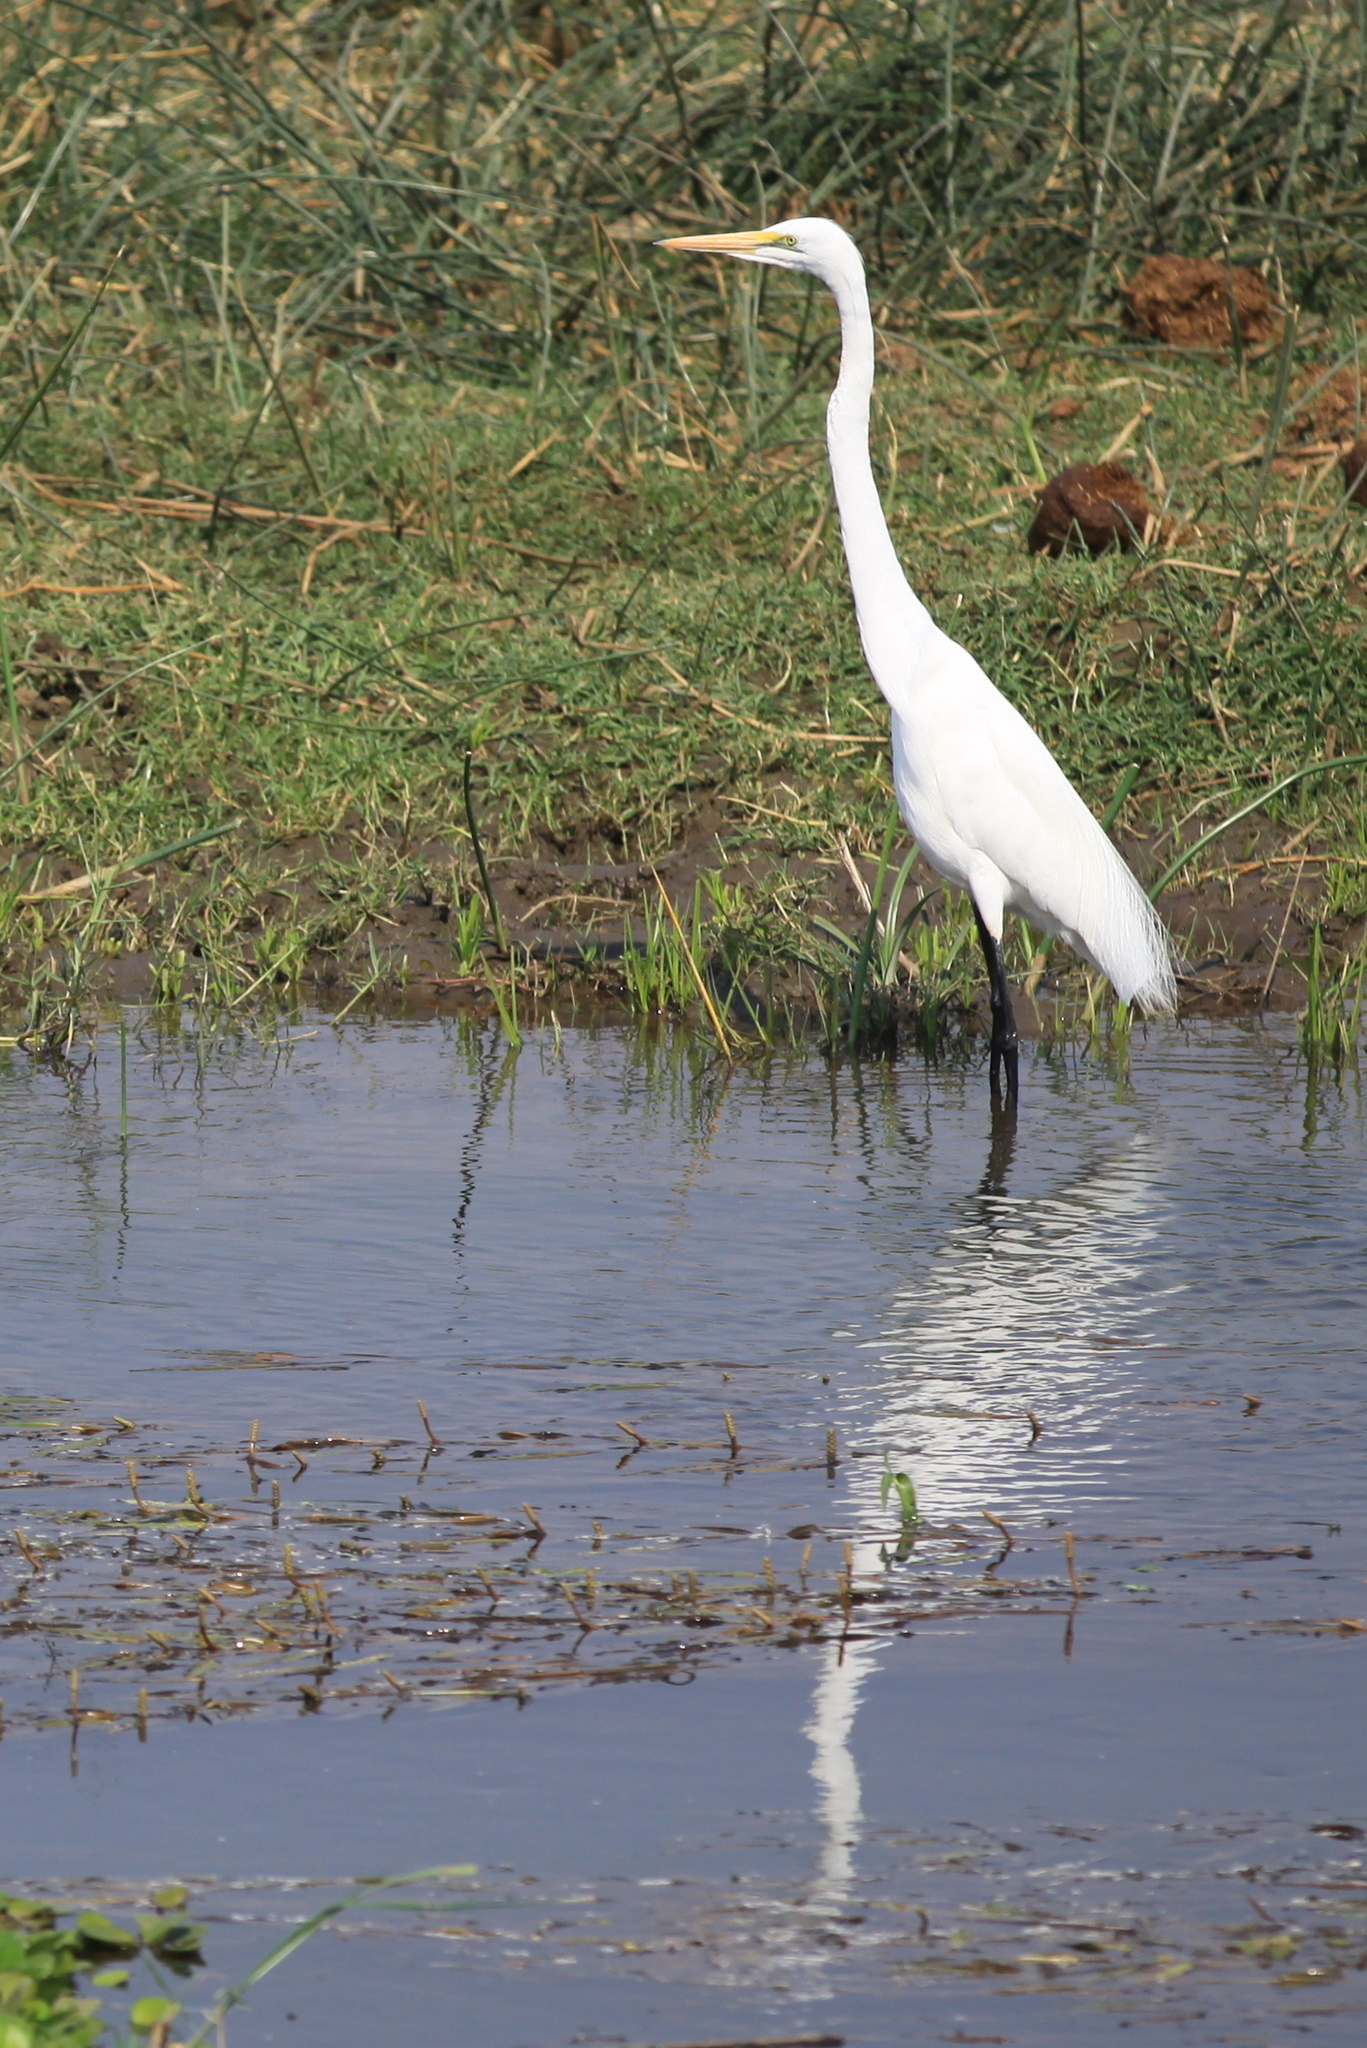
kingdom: Animalia
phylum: Chordata
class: Aves
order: Pelecaniformes
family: Ardeidae
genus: Ardea
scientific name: Ardea alba
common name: Great egret
